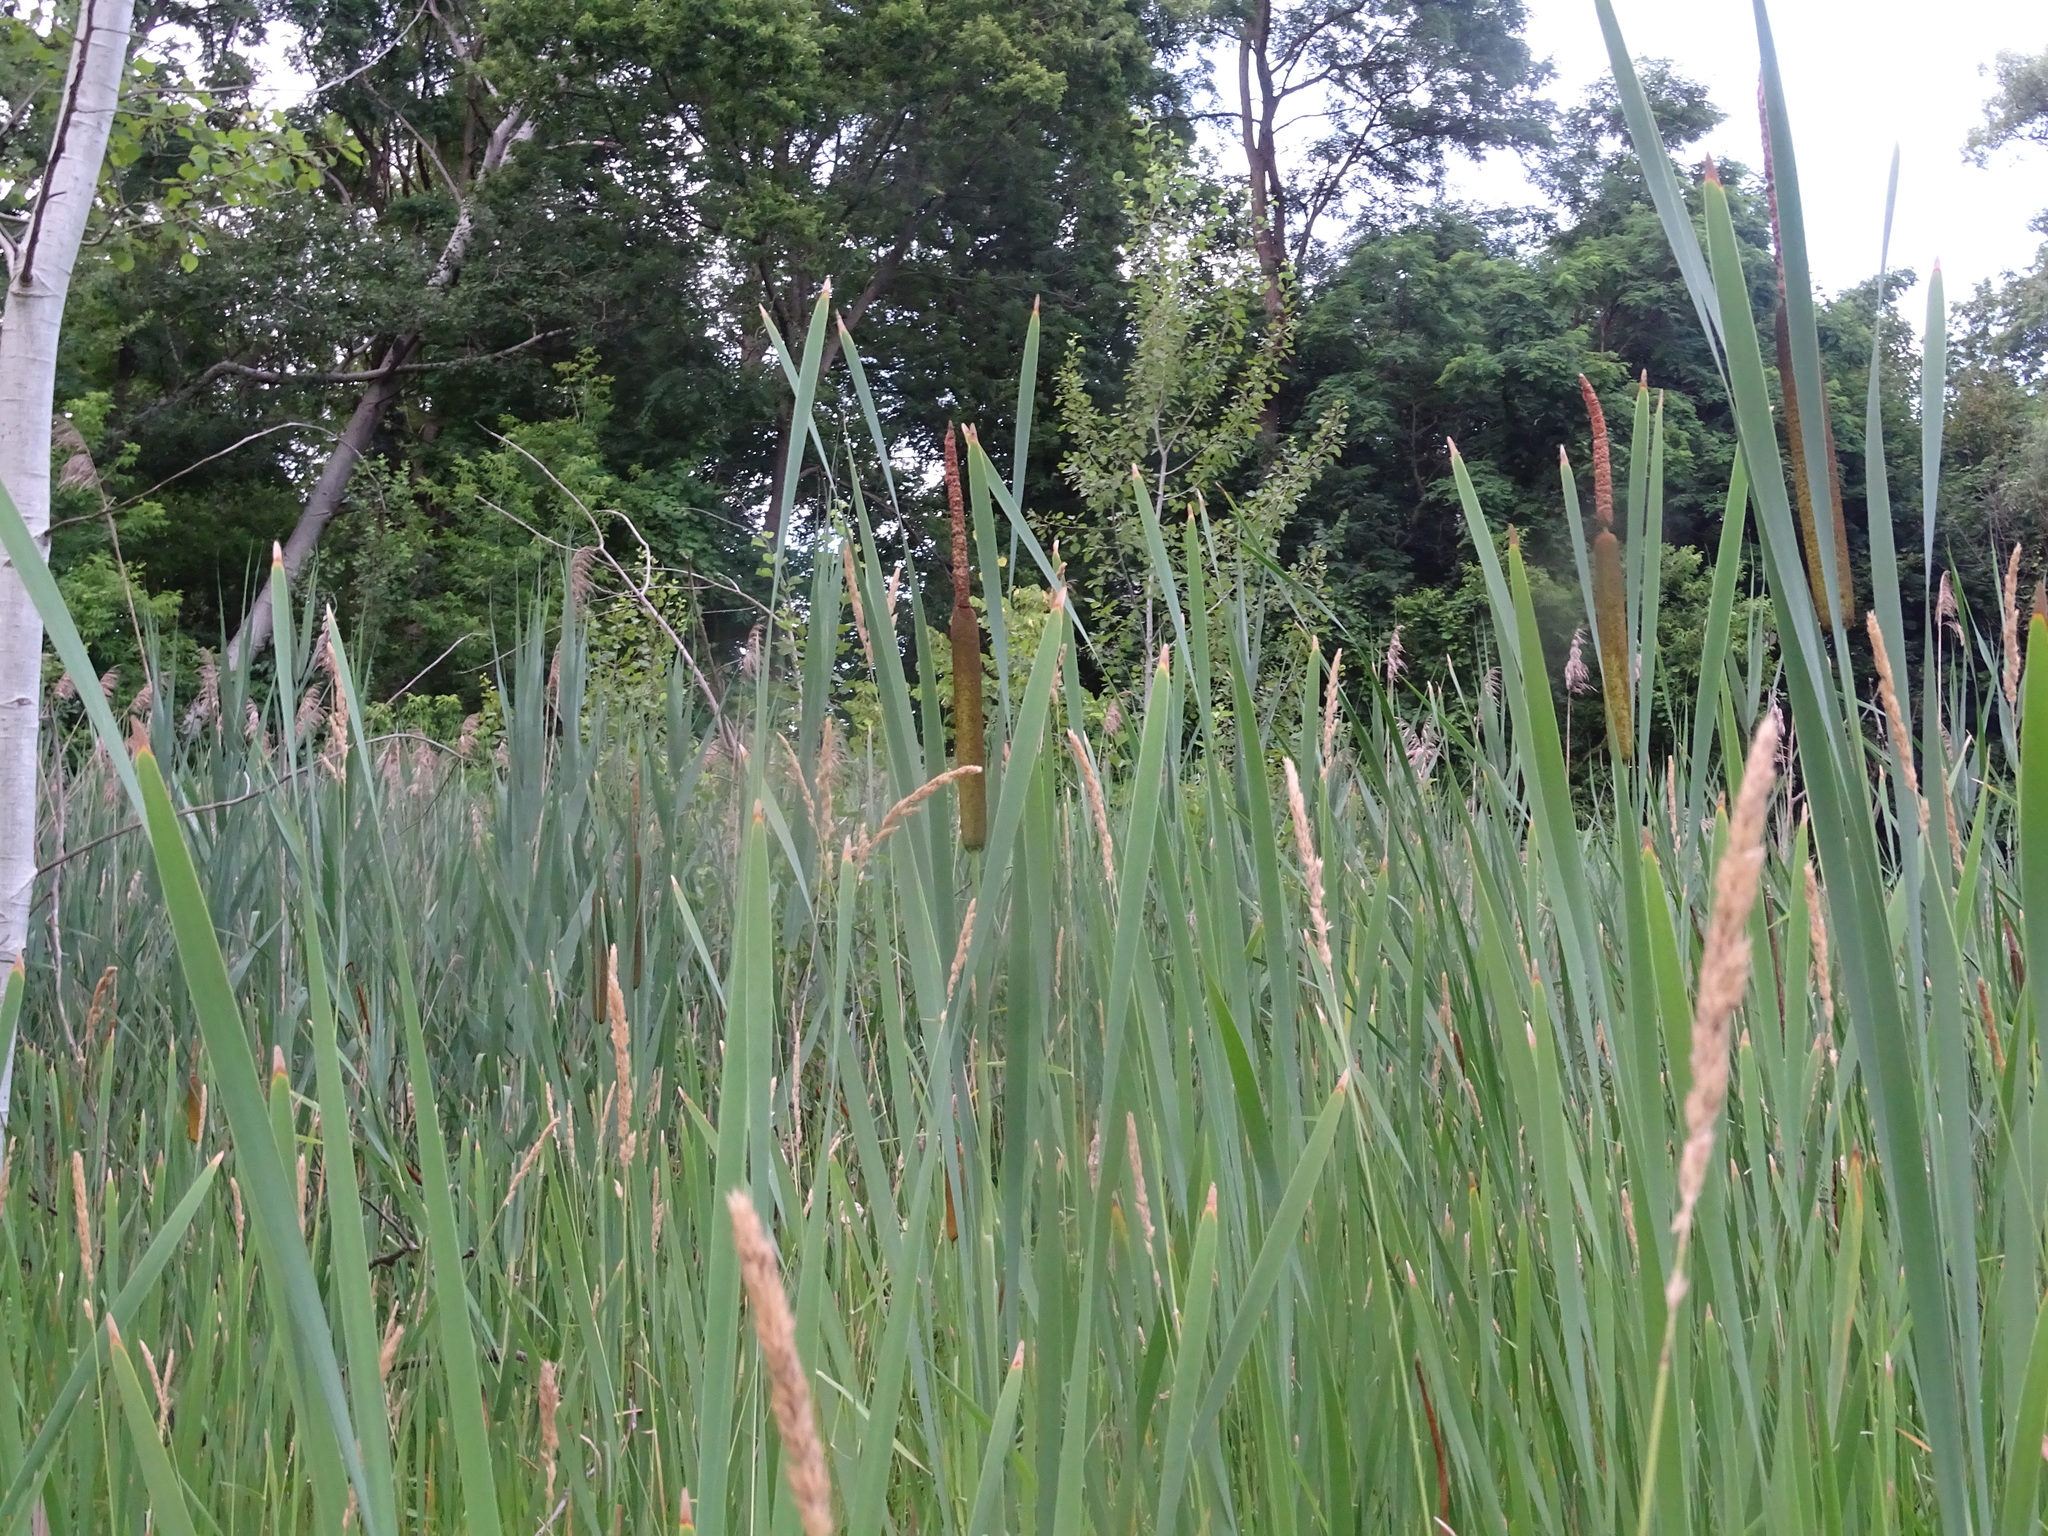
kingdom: Plantae
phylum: Tracheophyta
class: Liliopsida
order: Poales
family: Typhaceae
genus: Typha
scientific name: Typha latifolia
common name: Broadleaf cattail
